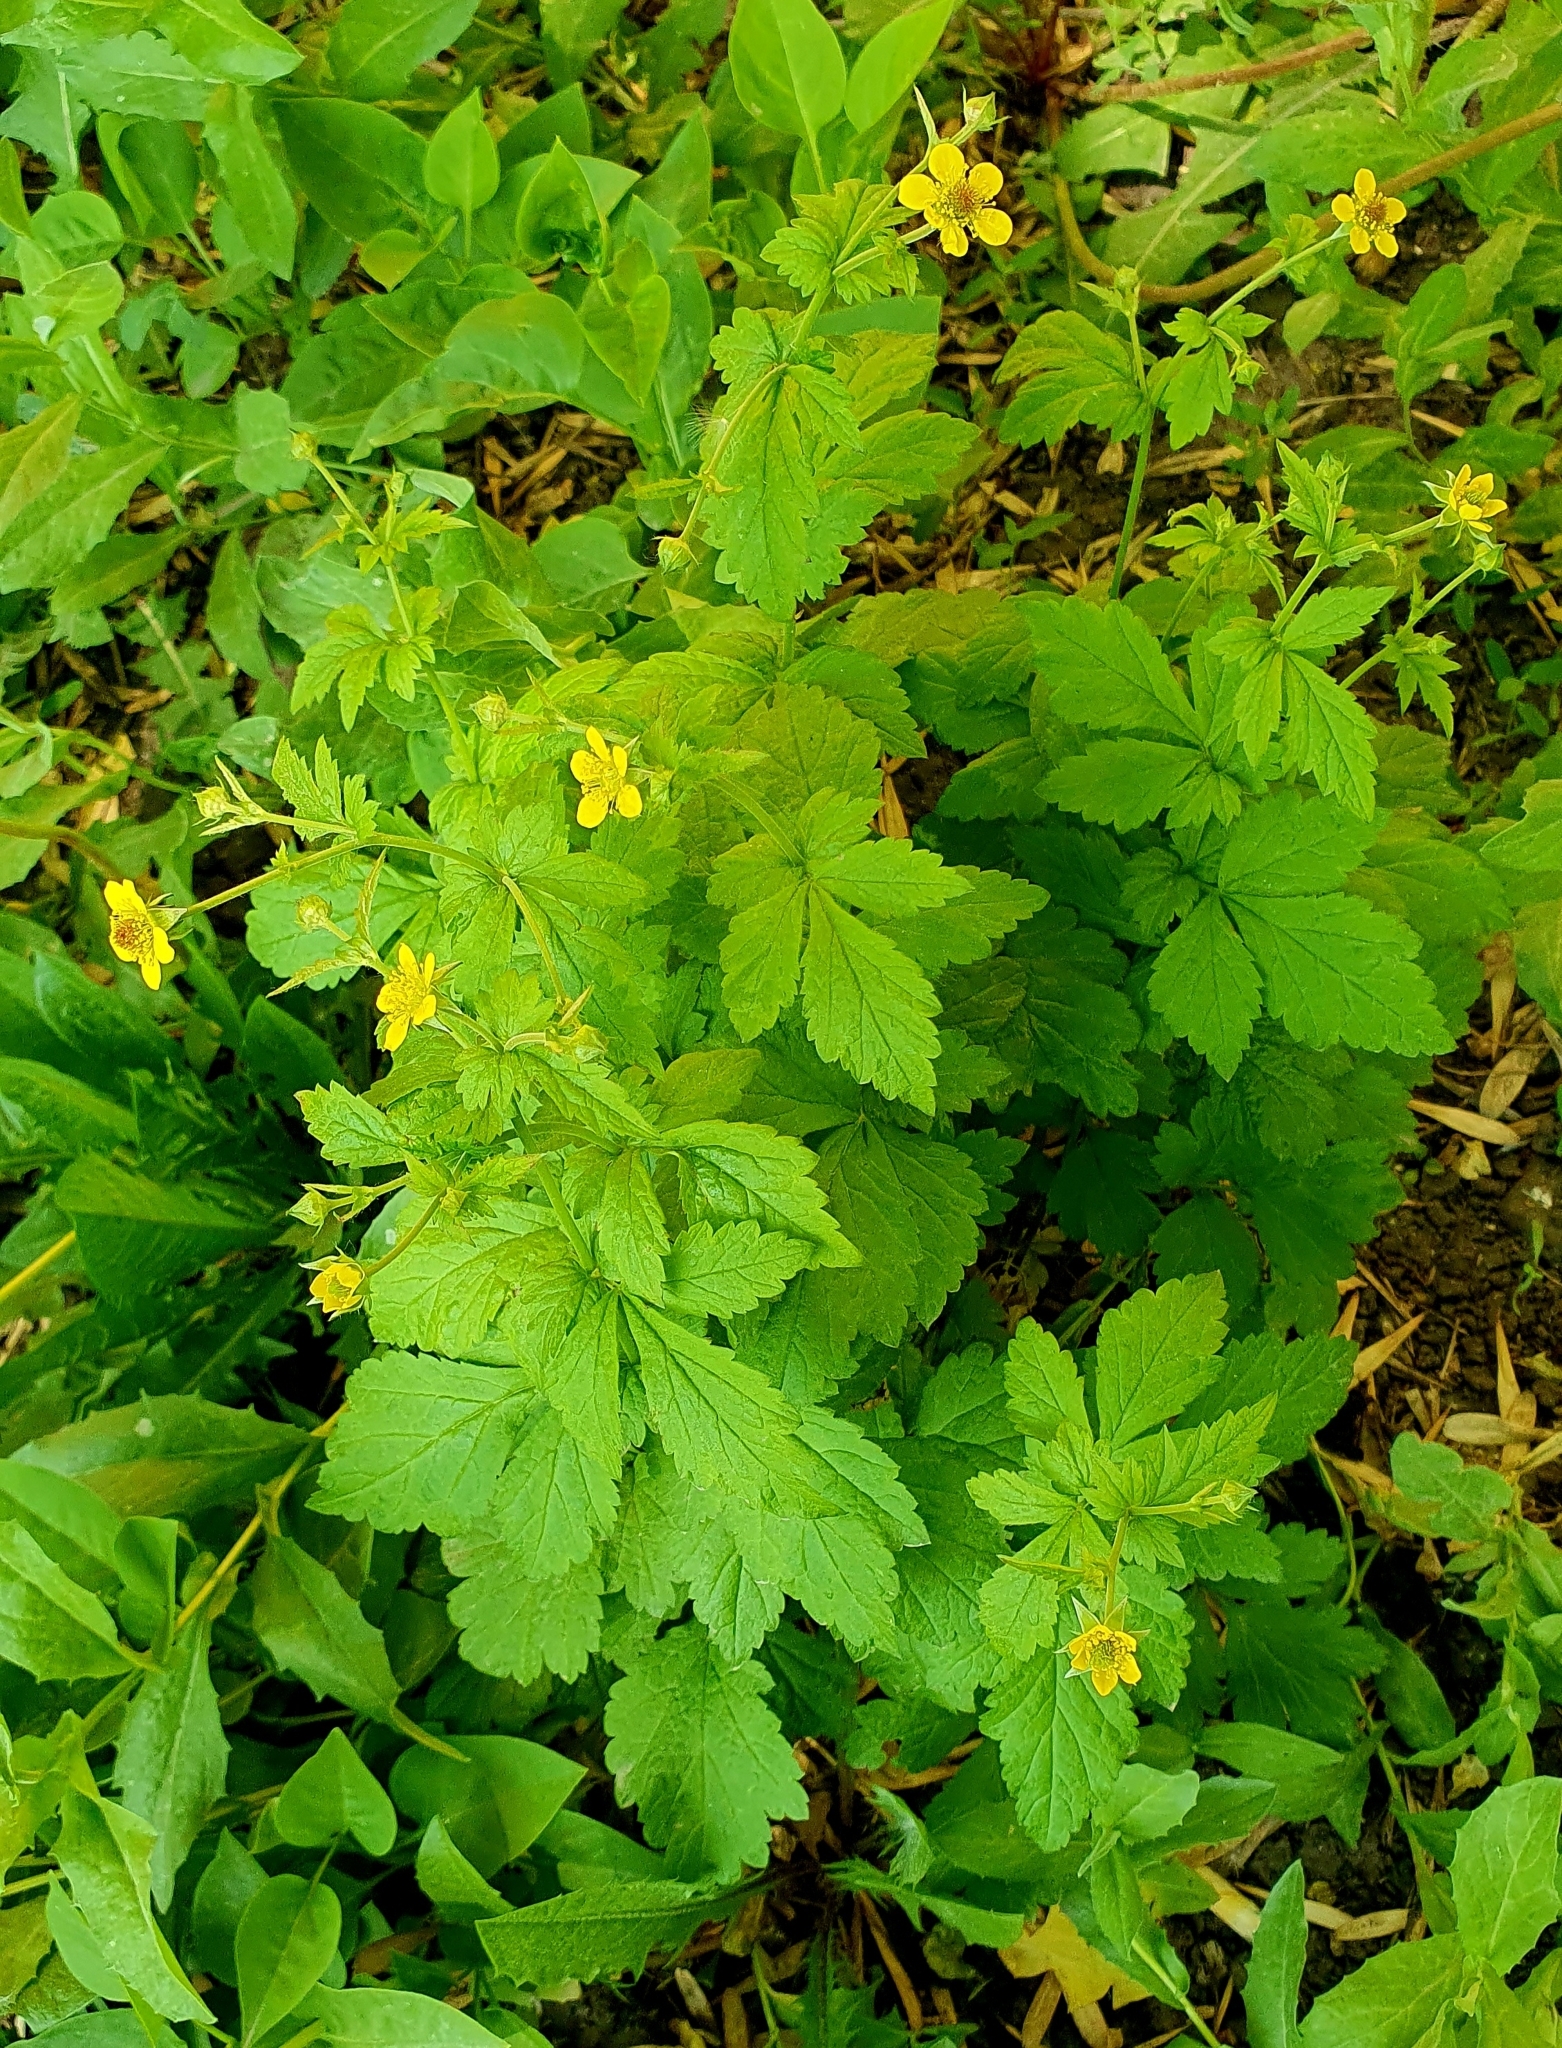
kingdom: Plantae
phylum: Tracheophyta
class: Magnoliopsida
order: Rosales
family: Rosaceae
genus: Geum
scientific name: Geum urbanum
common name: Wood avens
